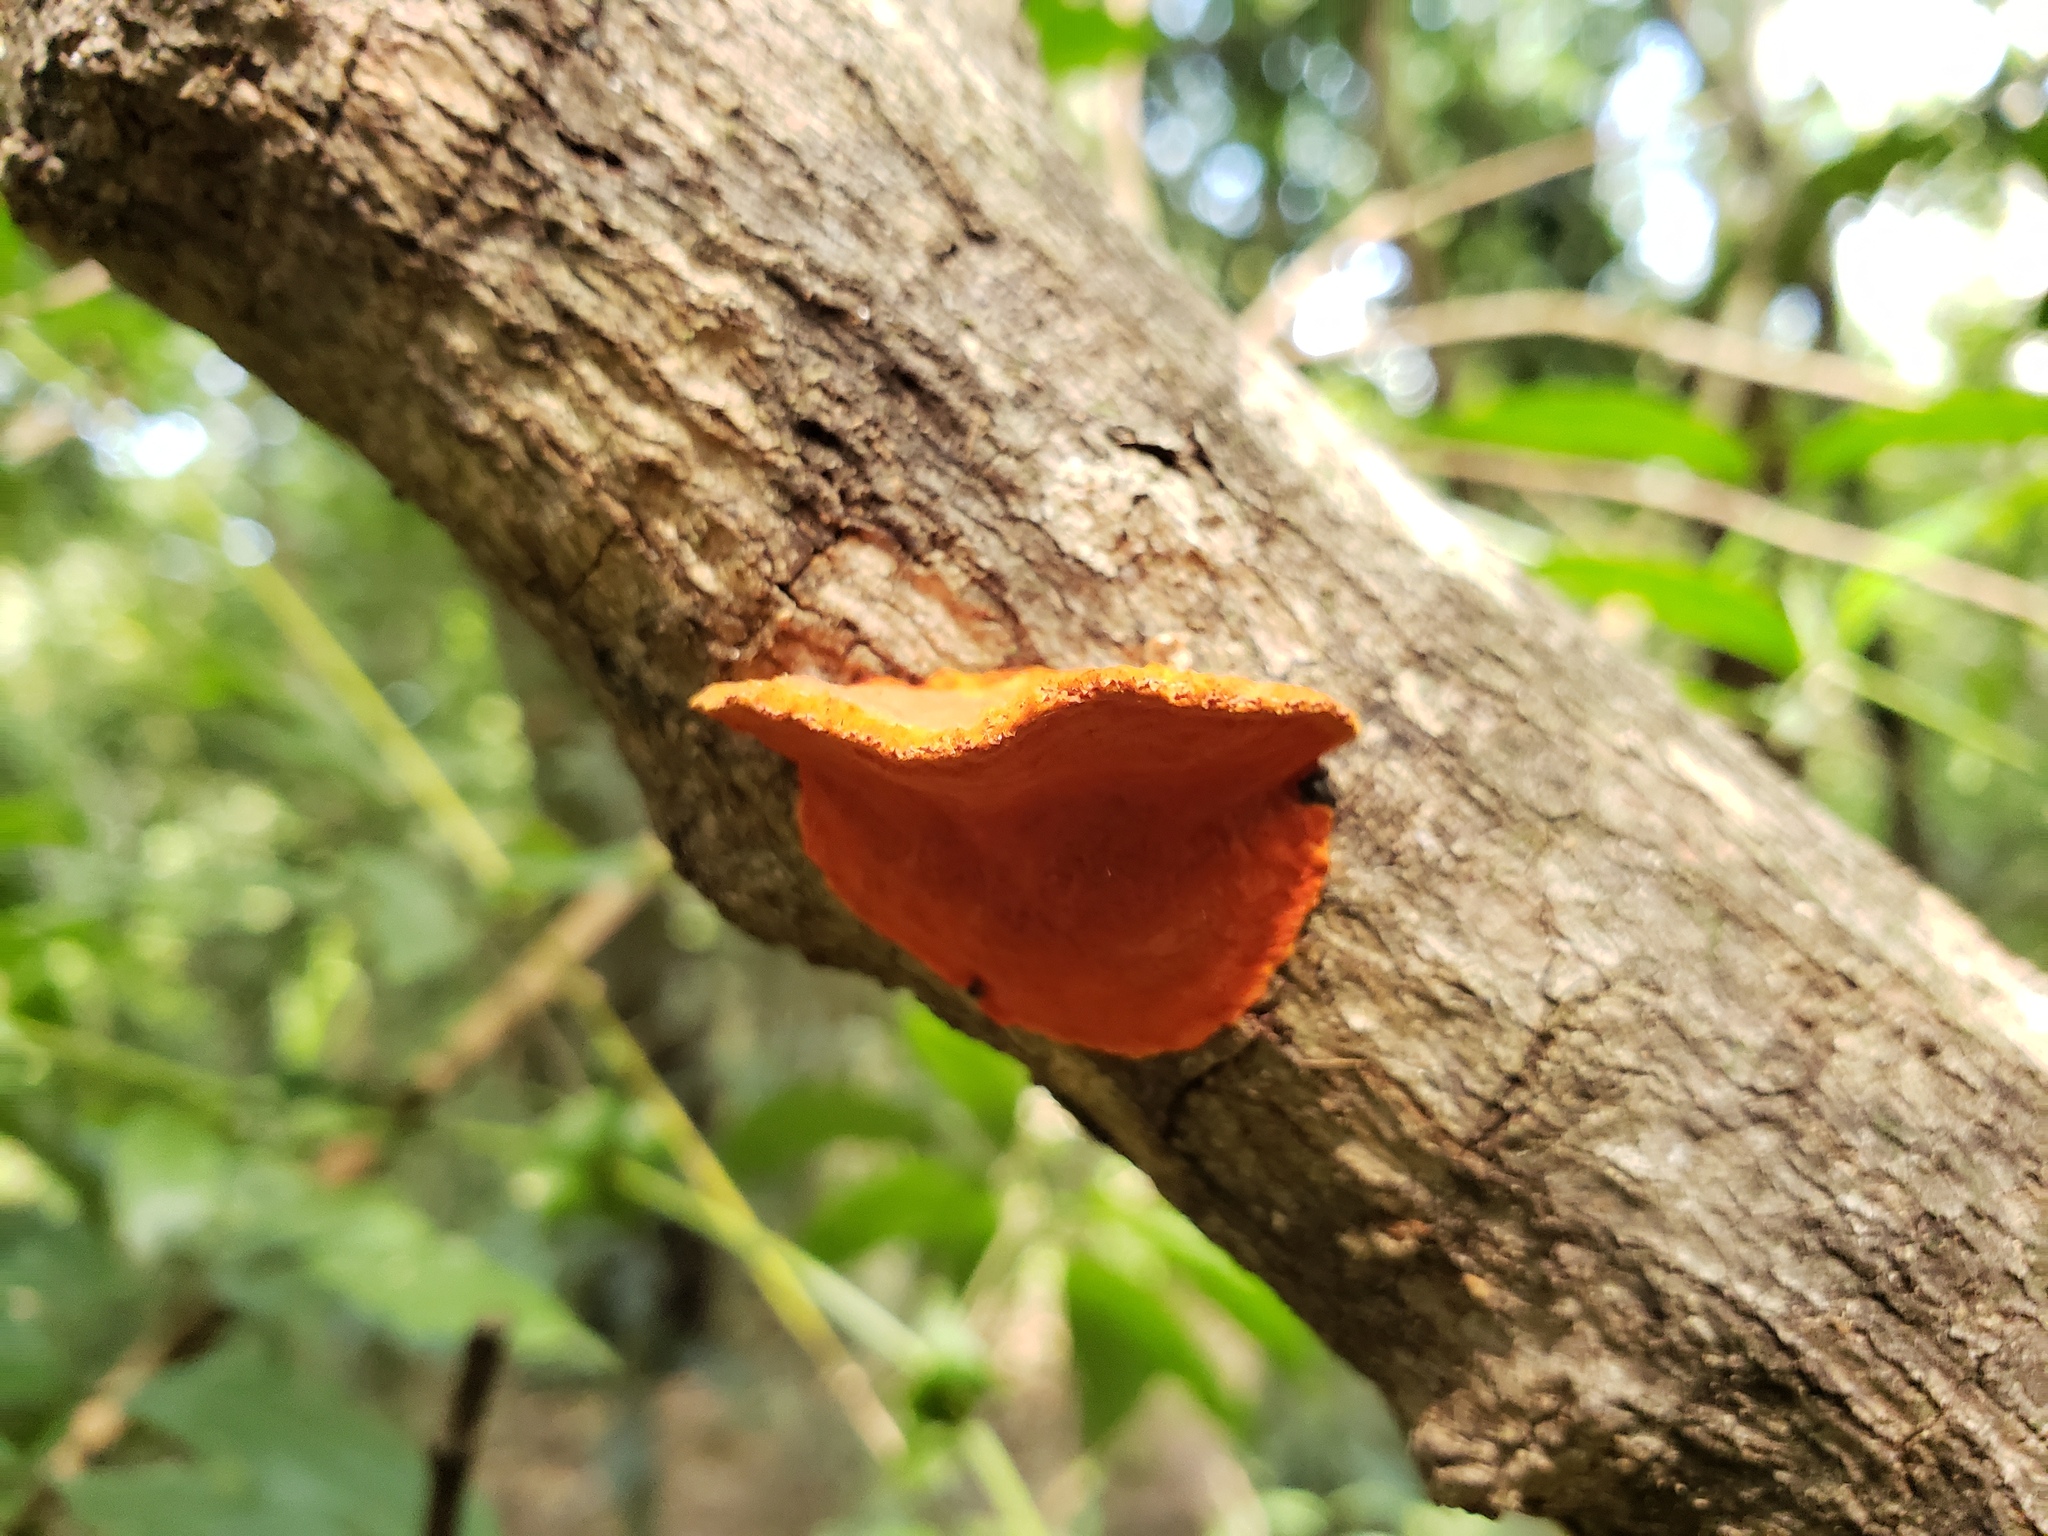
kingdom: Fungi
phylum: Basidiomycota
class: Agaricomycetes
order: Polyporales
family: Polyporaceae
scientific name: Polyporaceae
